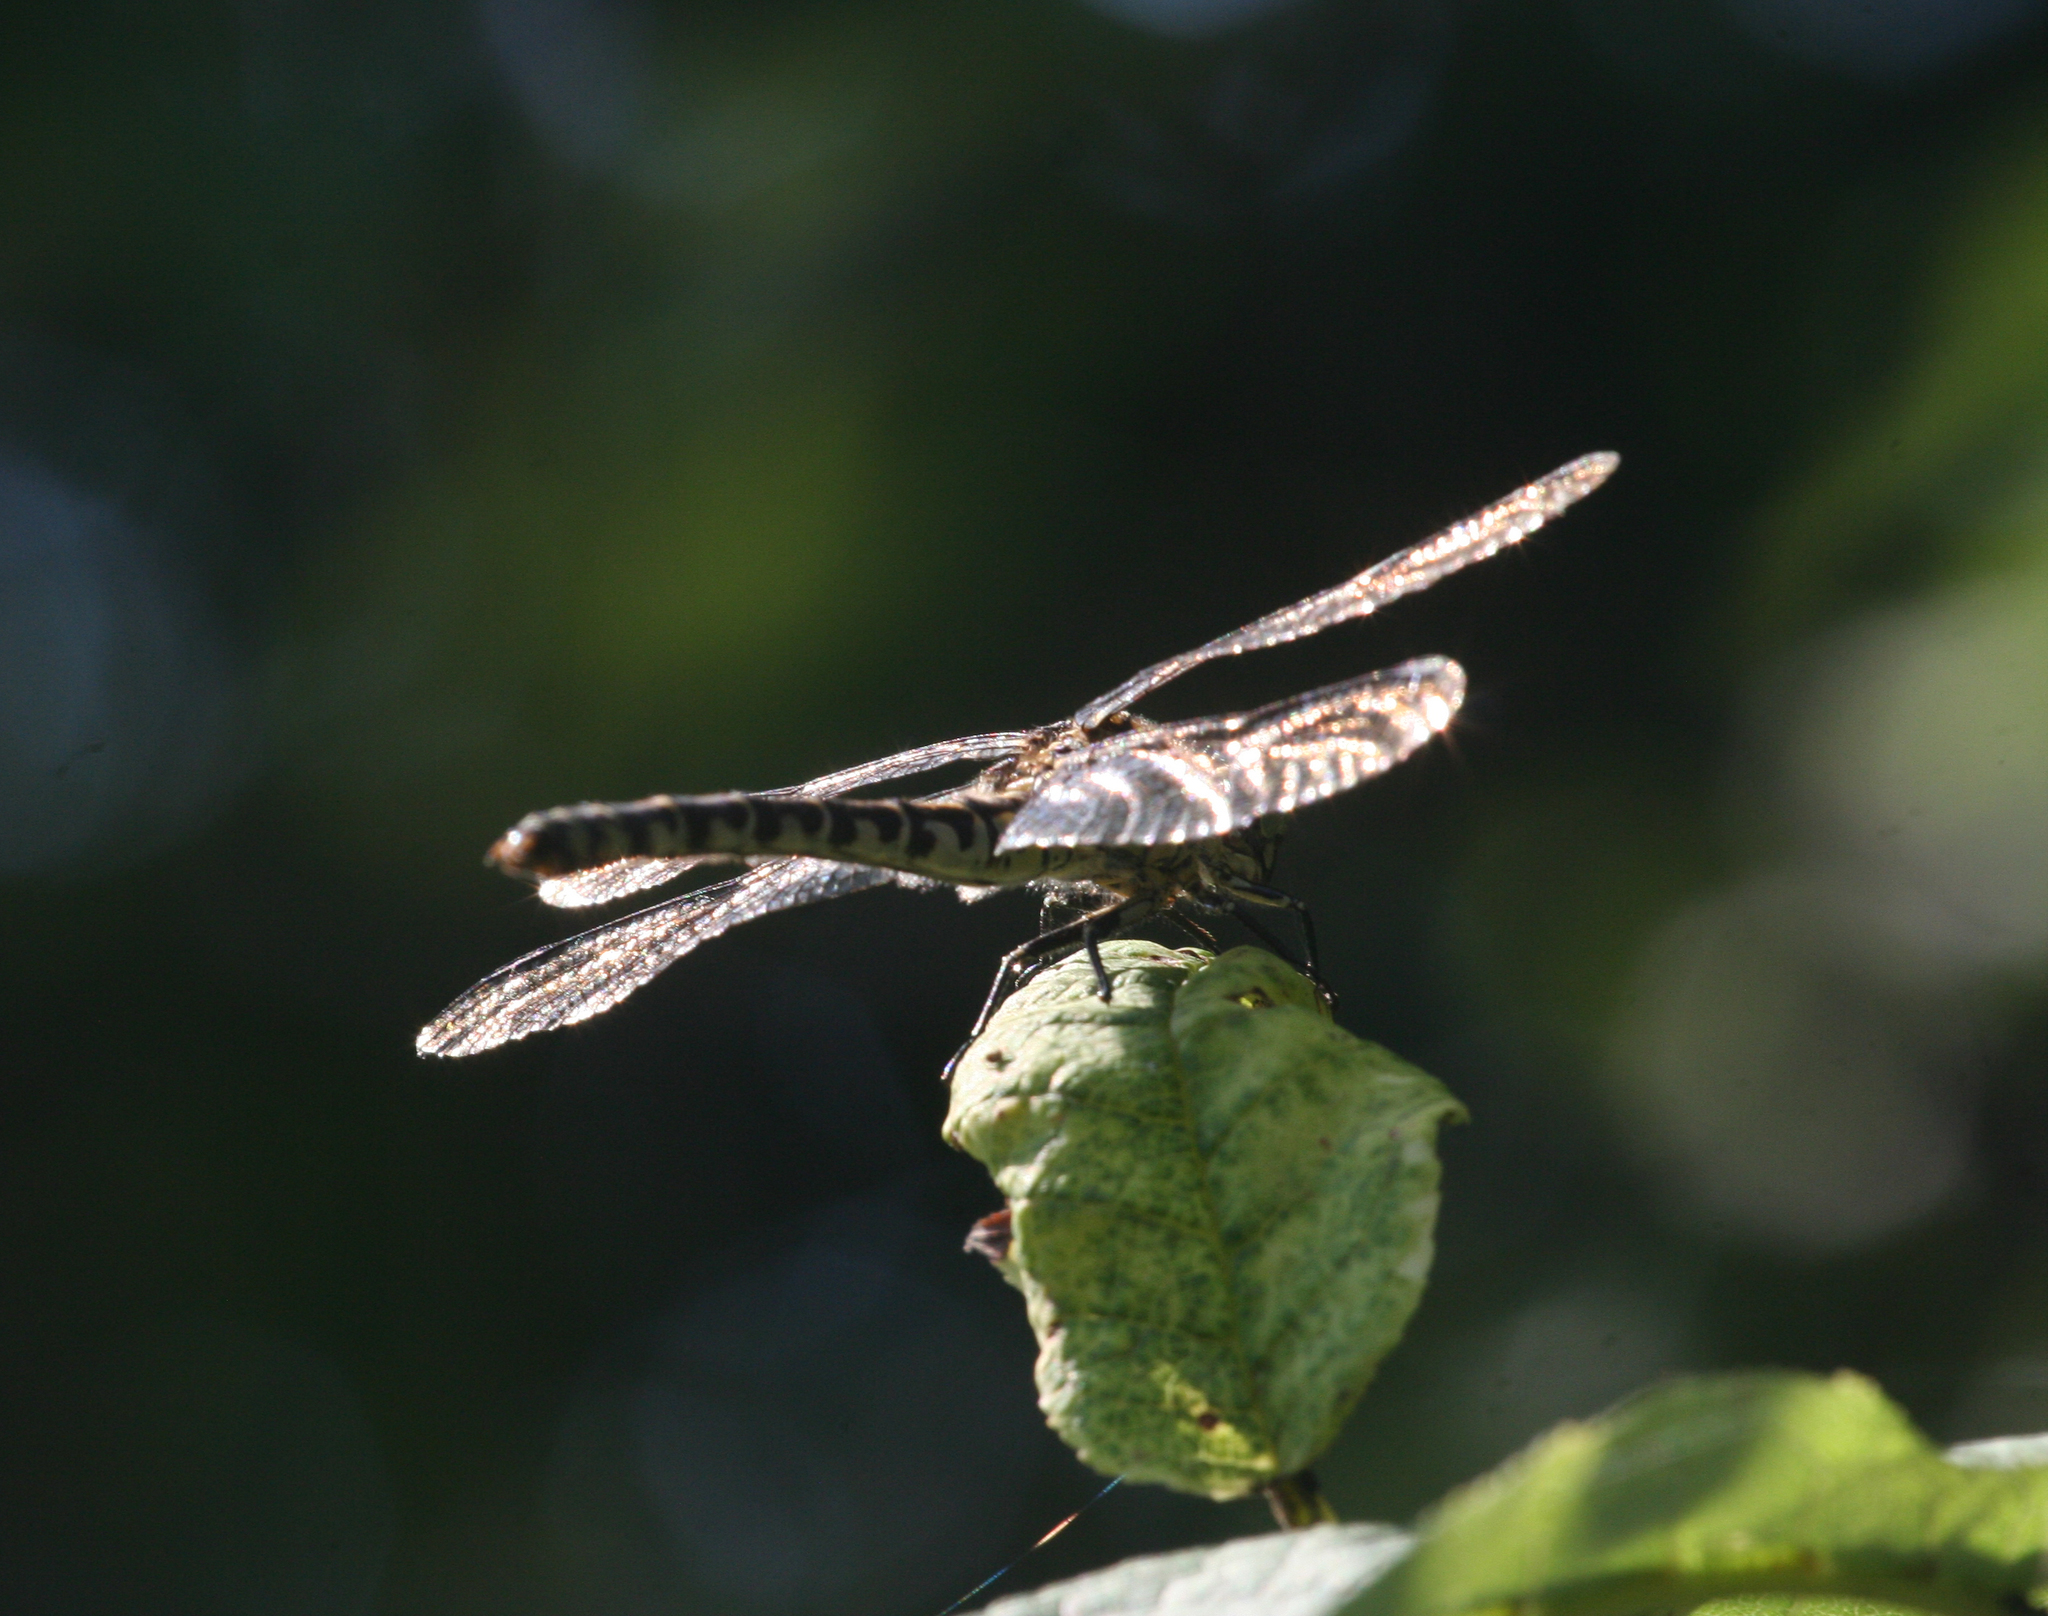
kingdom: Animalia
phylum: Arthropoda
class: Insecta
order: Odonata
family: Gomphidae
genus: Onychogomphus
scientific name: Onychogomphus forcipatus
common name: Small pincertail
